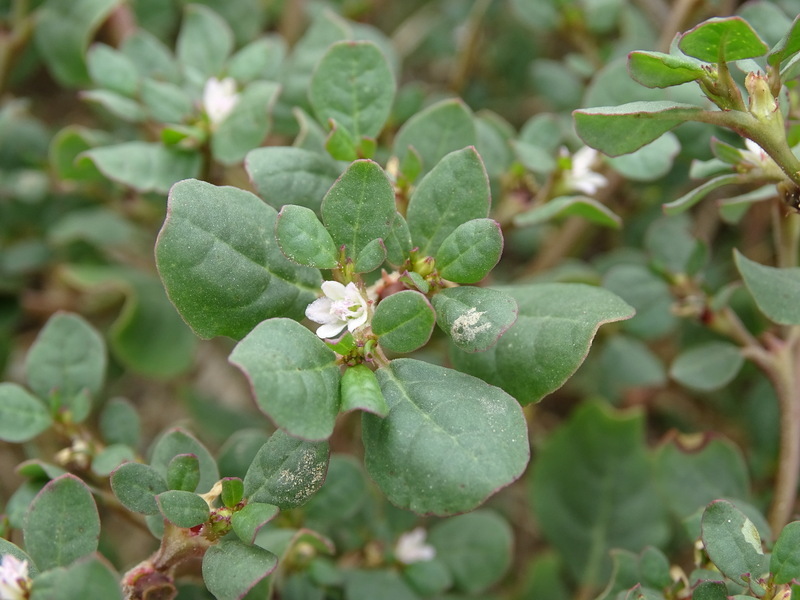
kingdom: Plantae
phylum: Tracheophyta
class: Magnoliopsida
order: Caryophyllales
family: Aizoaceae
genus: Trianthema
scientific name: Trianthema portulacastrum
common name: Desert horsepurslane
